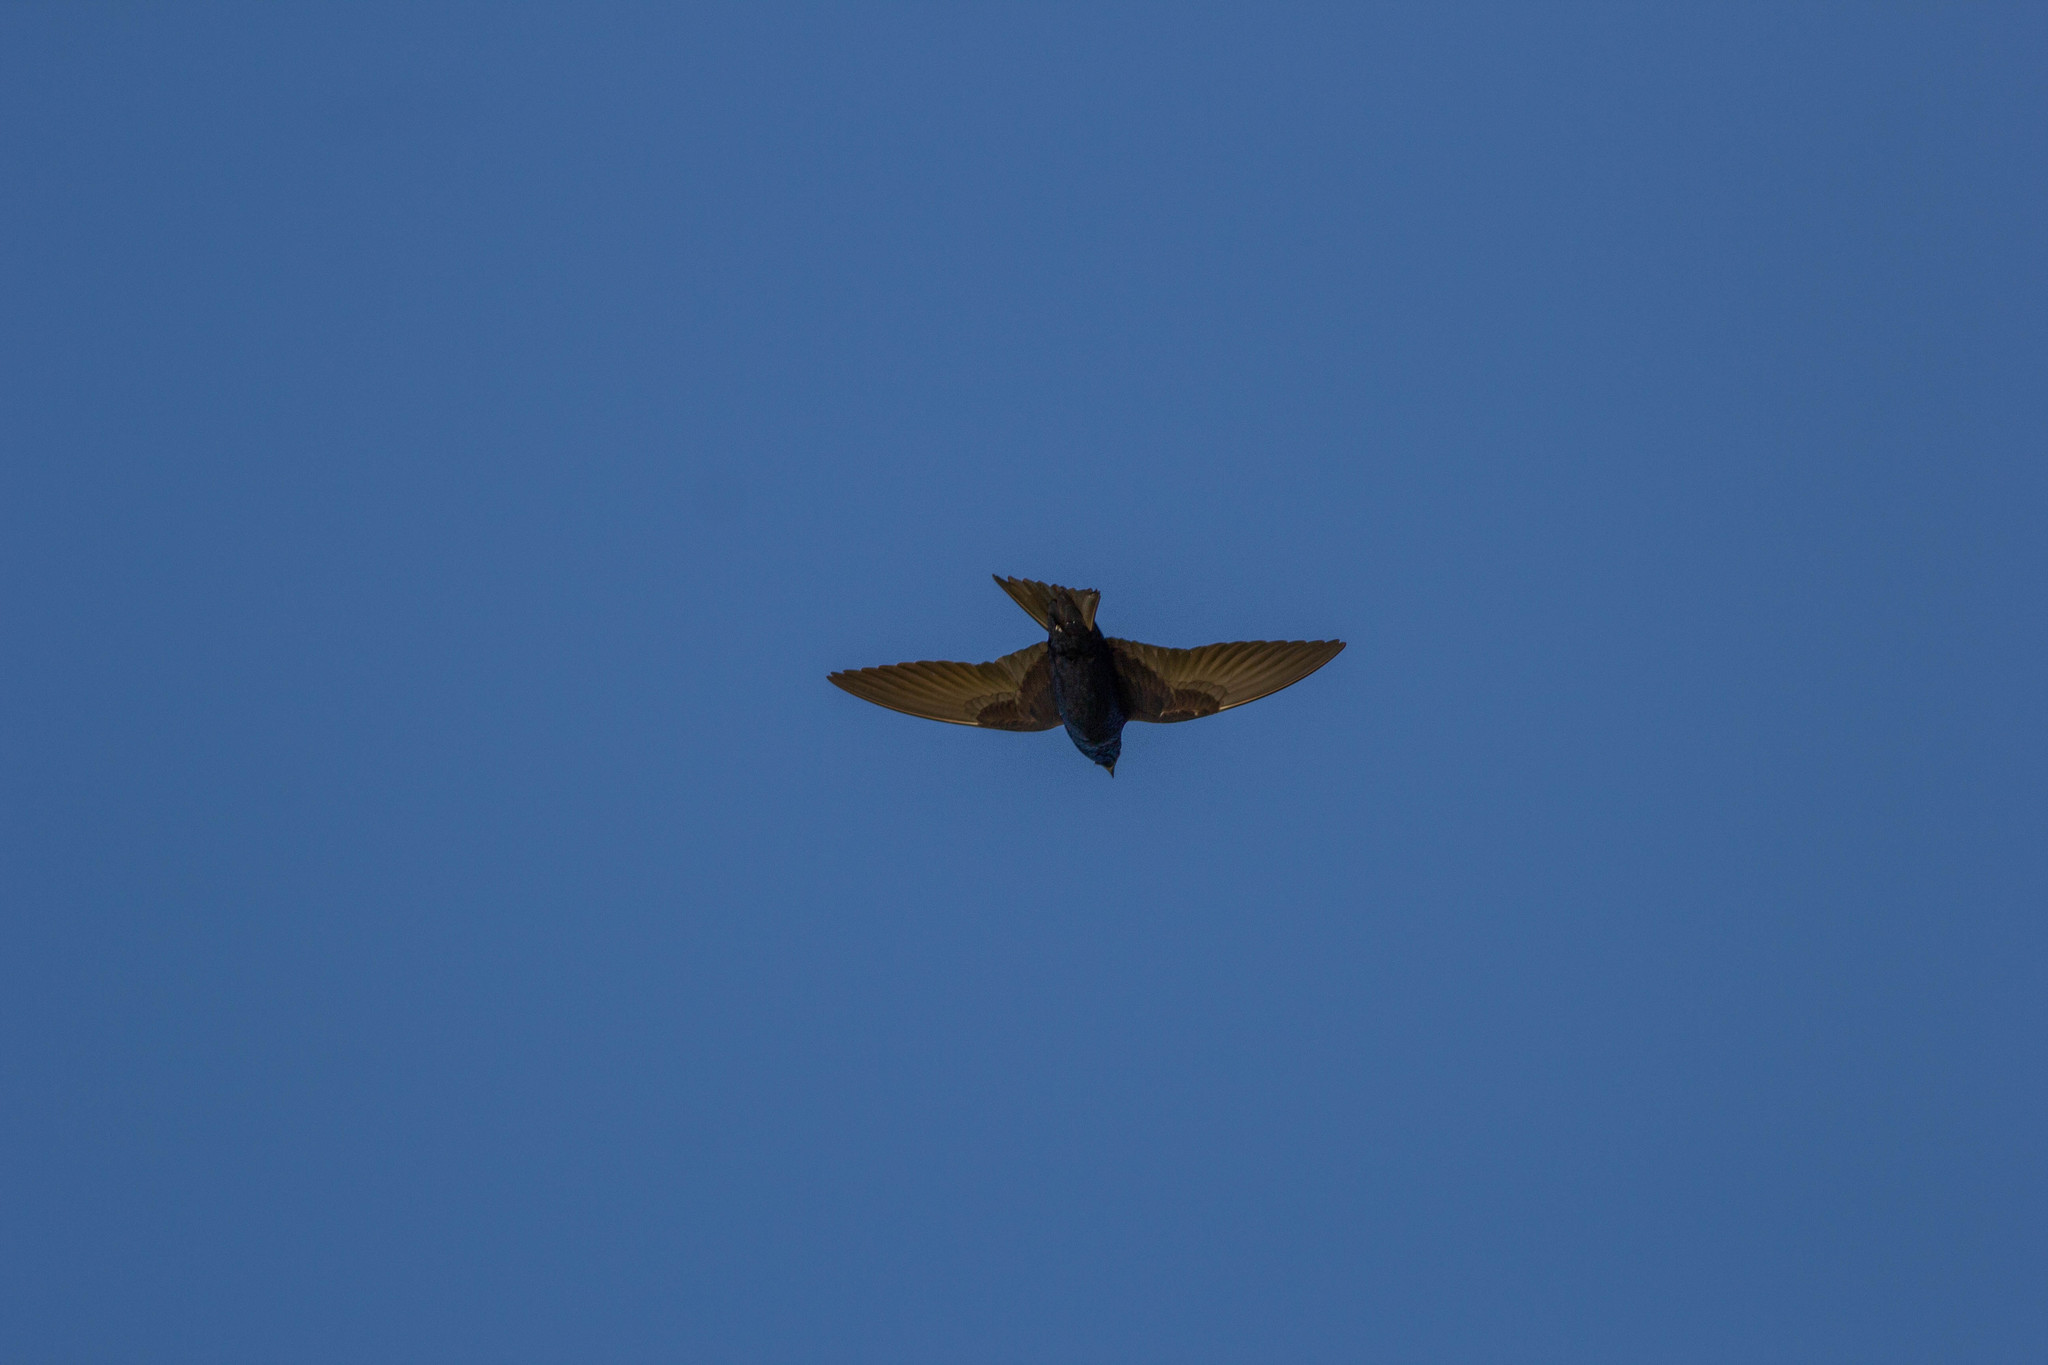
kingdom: Animalia
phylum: Chordata
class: Aves
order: Passeriformes
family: Hirundinidae
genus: Progne
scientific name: Progne subis
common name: Purple martin
